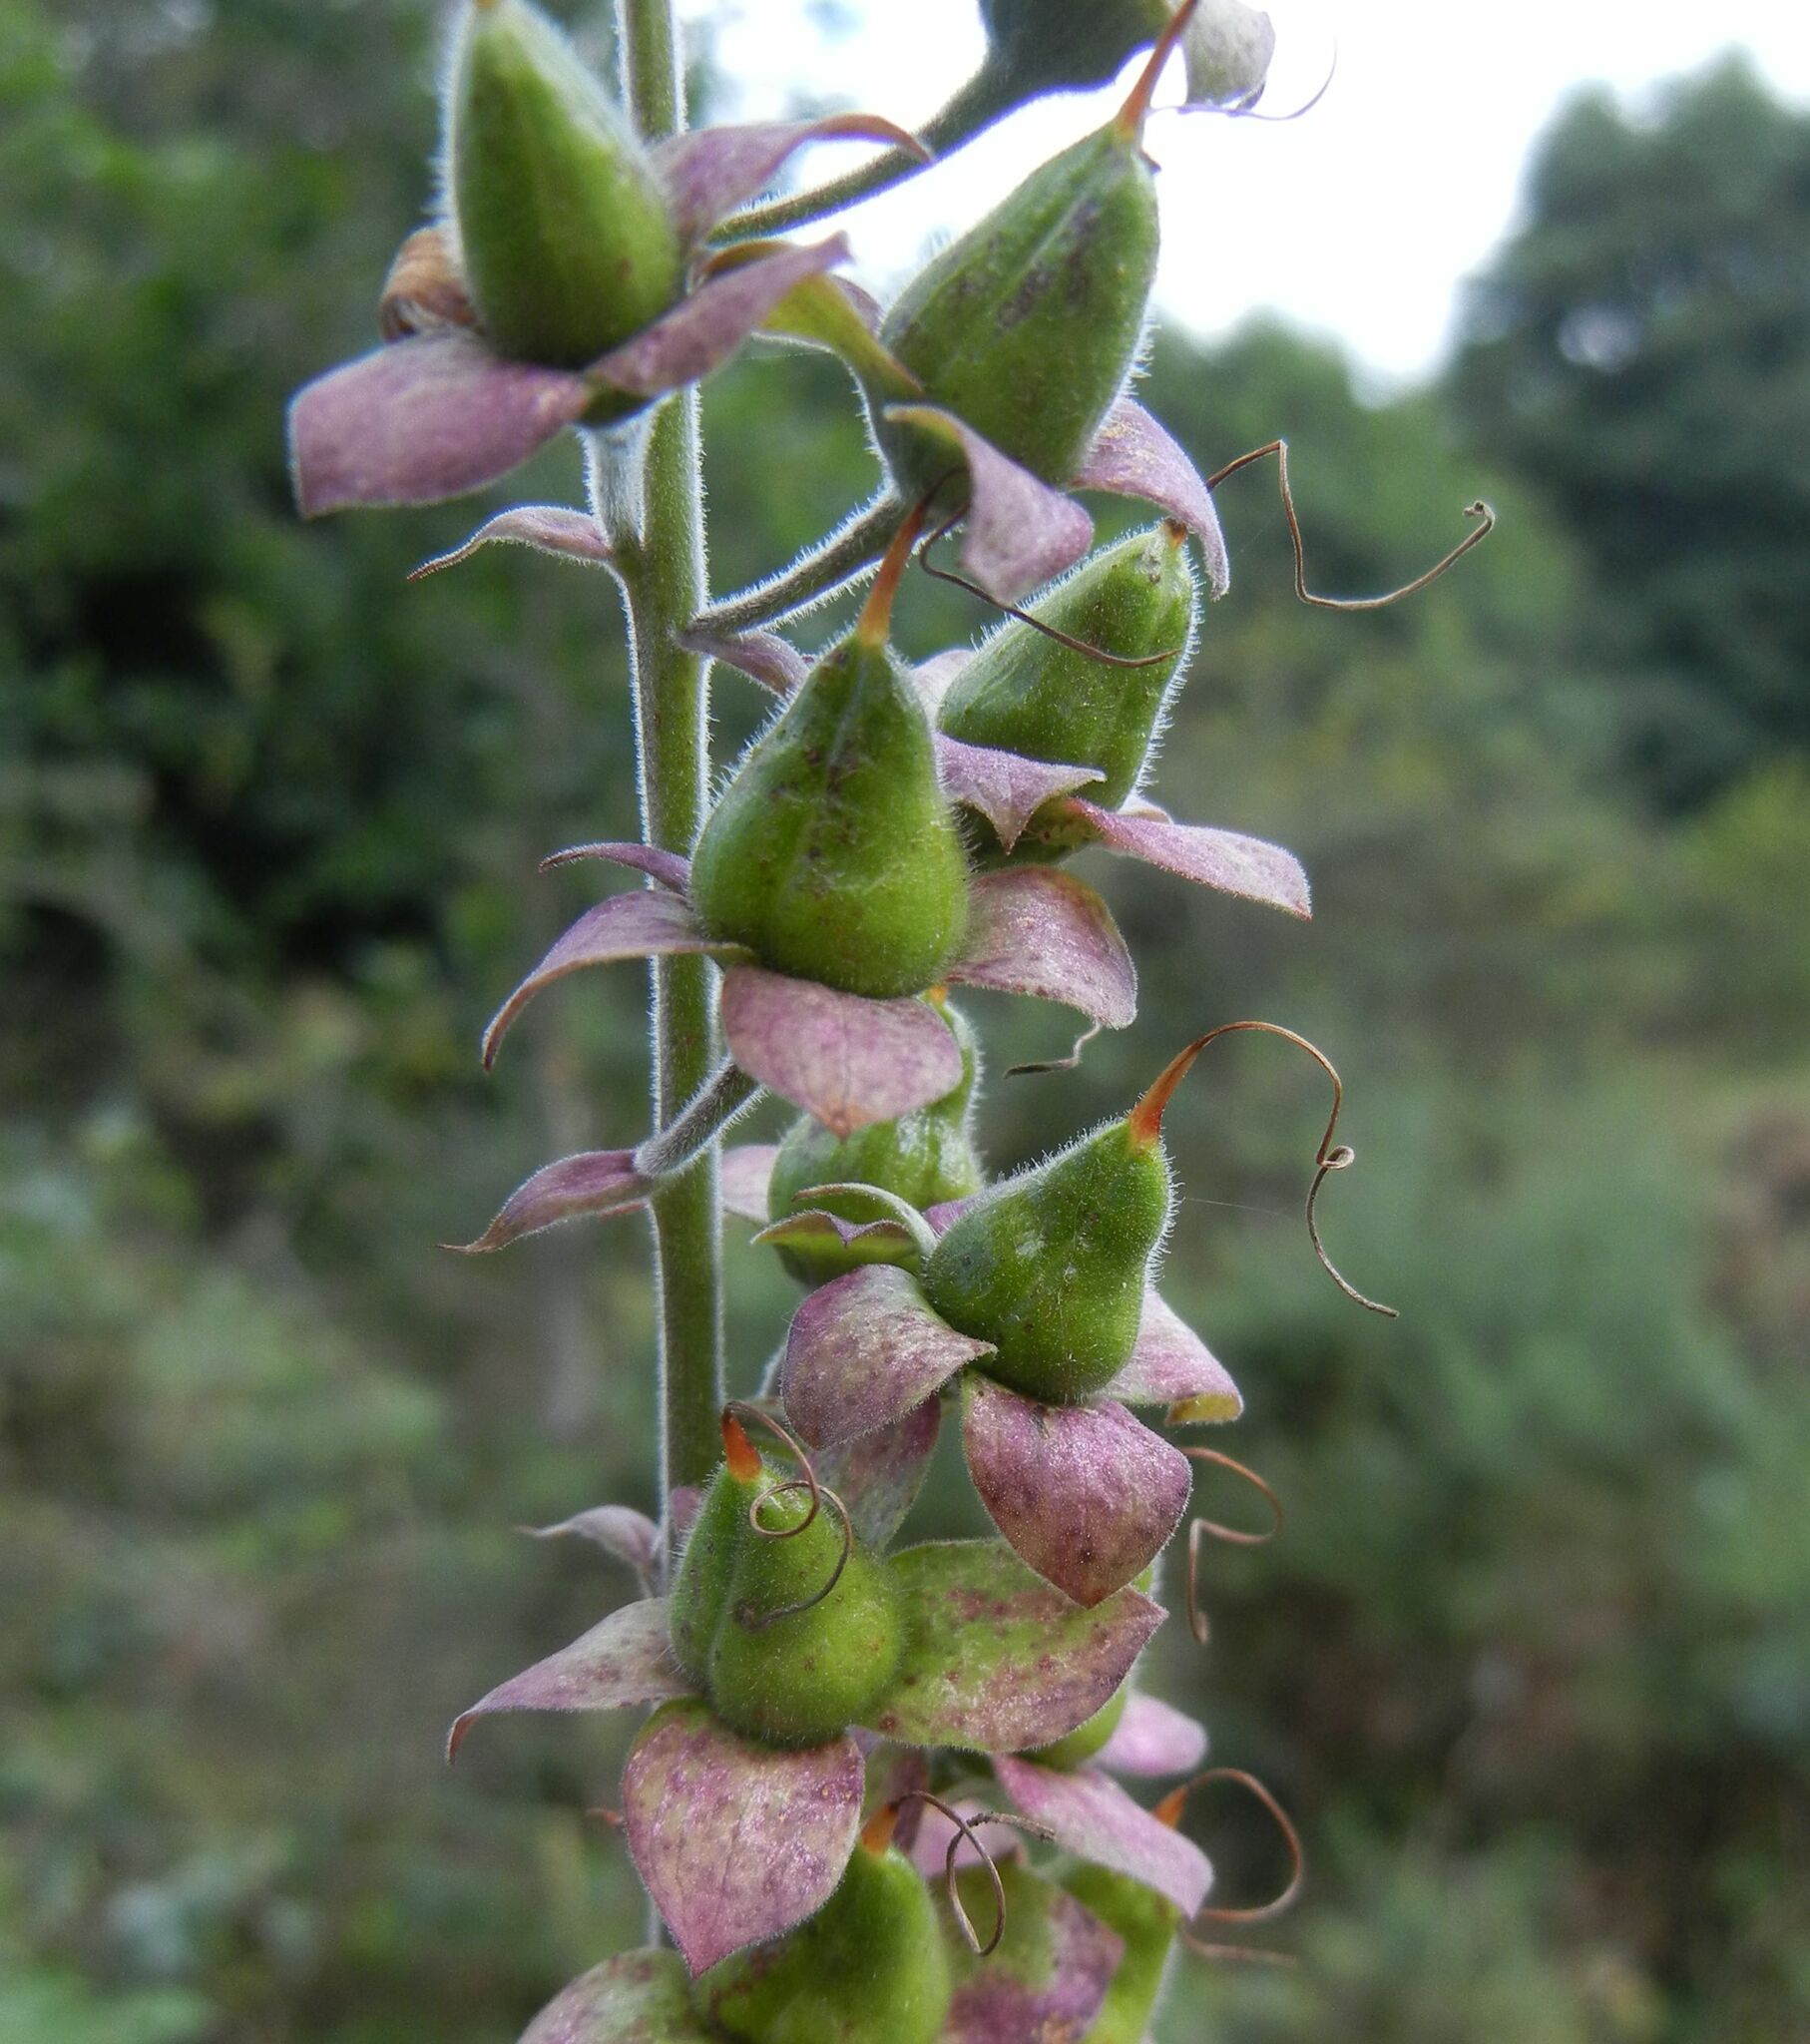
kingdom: Plantae
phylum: Tracheophyta
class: Magnoliopsida
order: Lamiales
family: Plantaginaceae
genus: Digitalis
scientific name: Digitalis purpurea
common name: Foxglove
